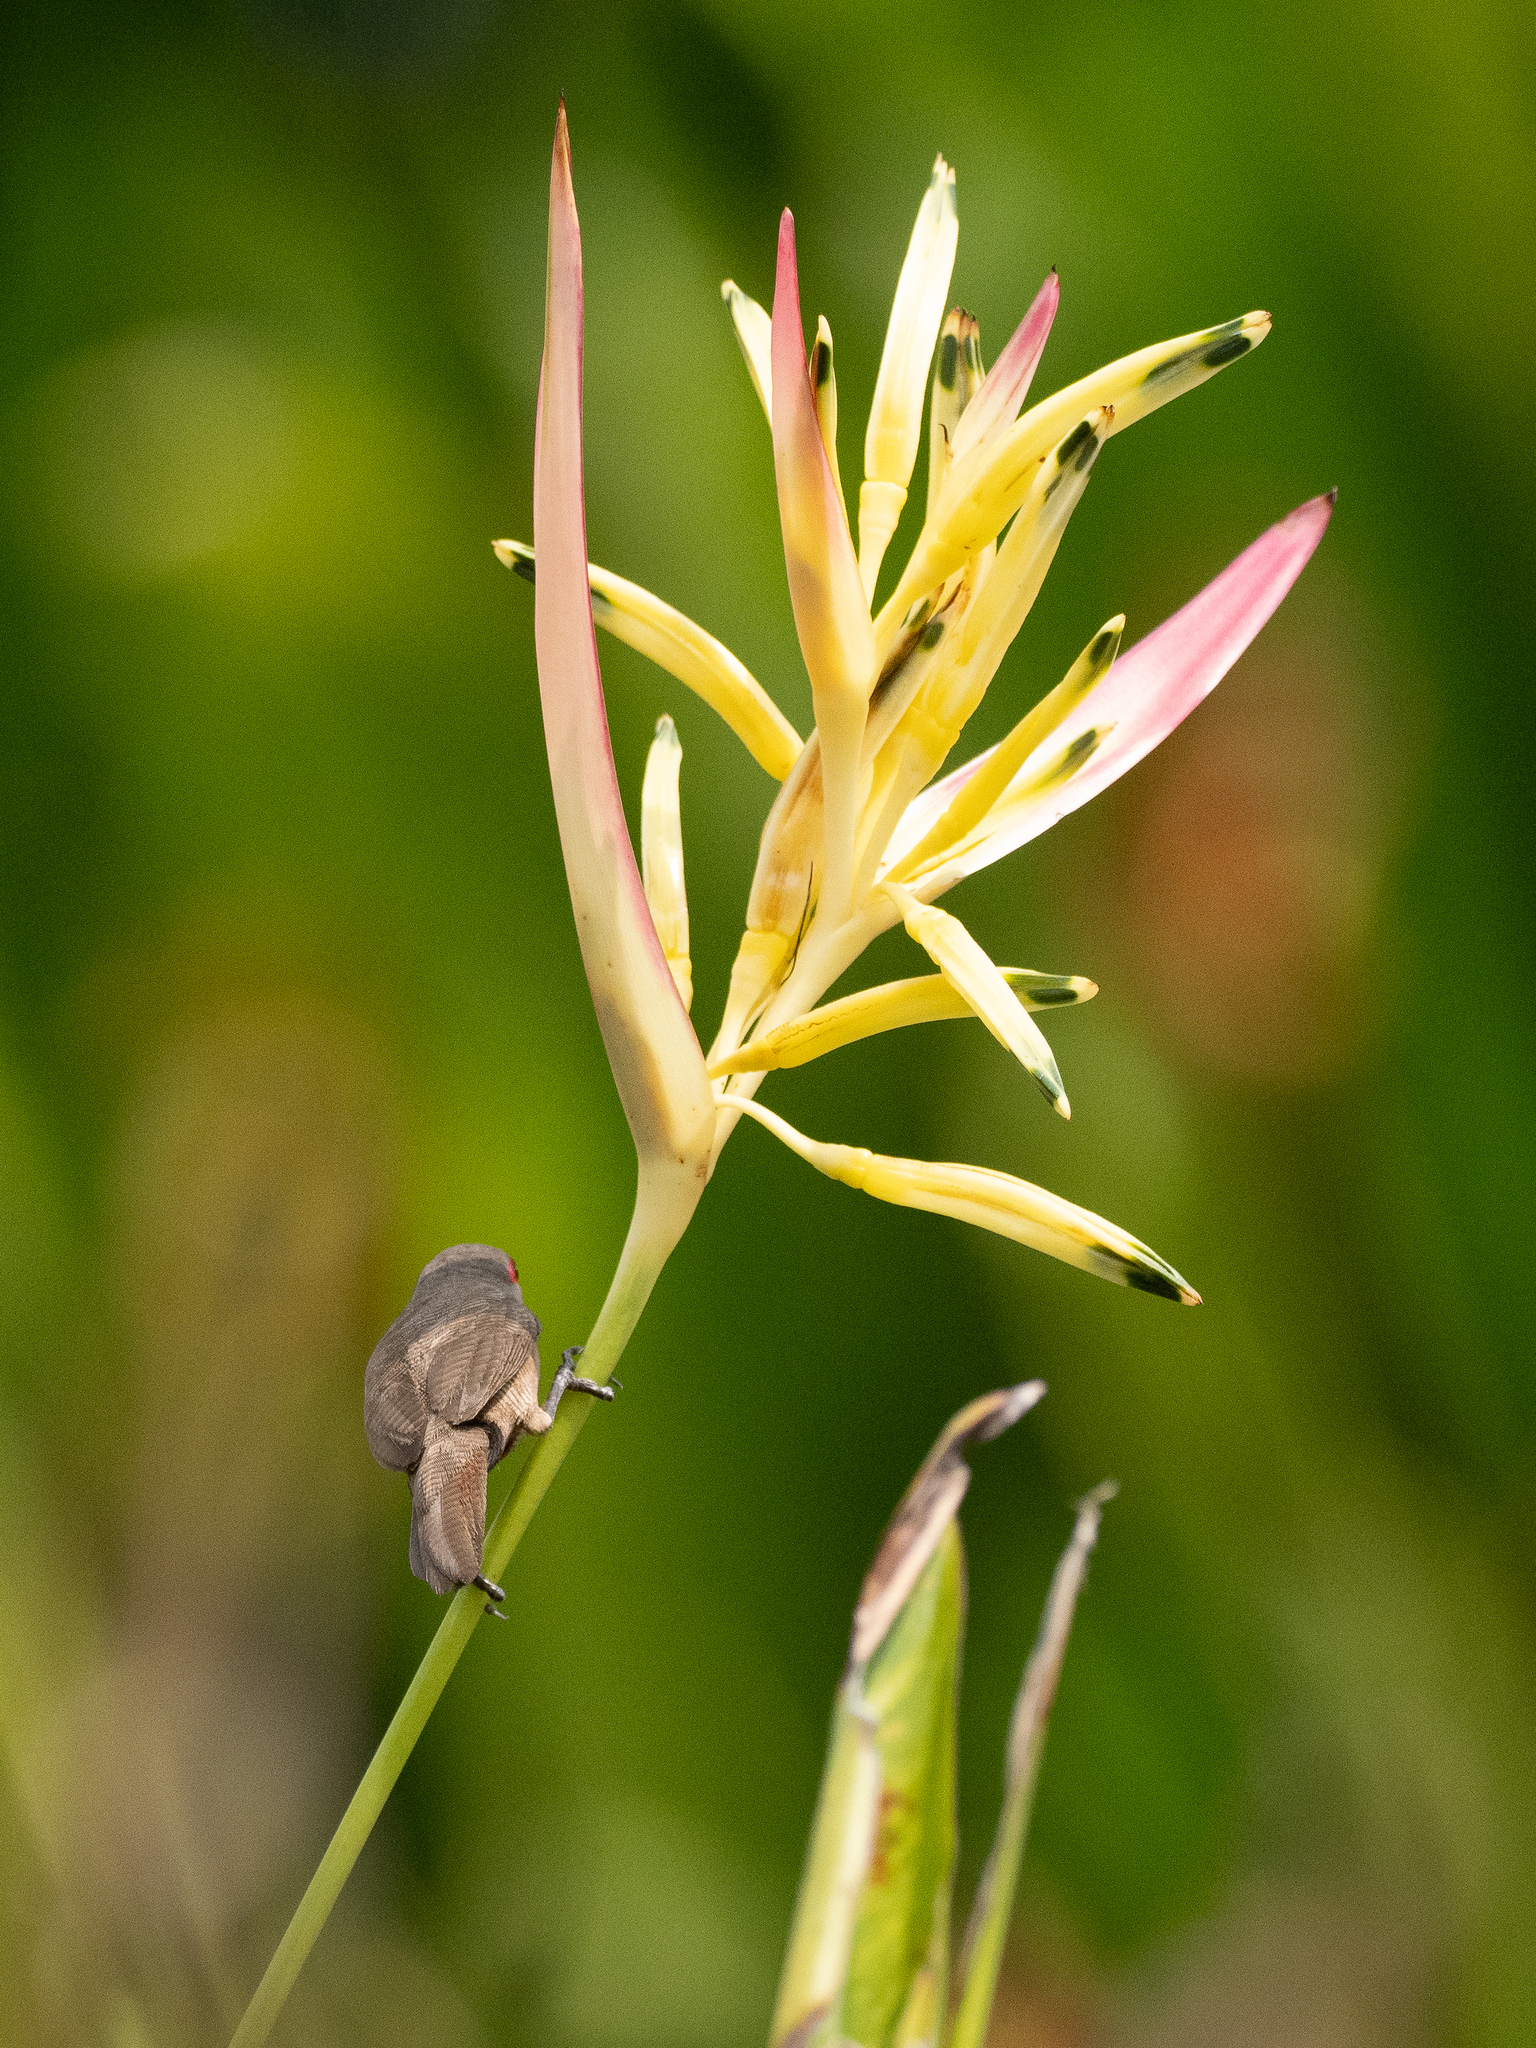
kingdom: Animalia
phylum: Chordata
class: Aves
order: Passeriformes
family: Estrildidae
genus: Estrilda
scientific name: Estrilda astrild
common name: Common waxbill
